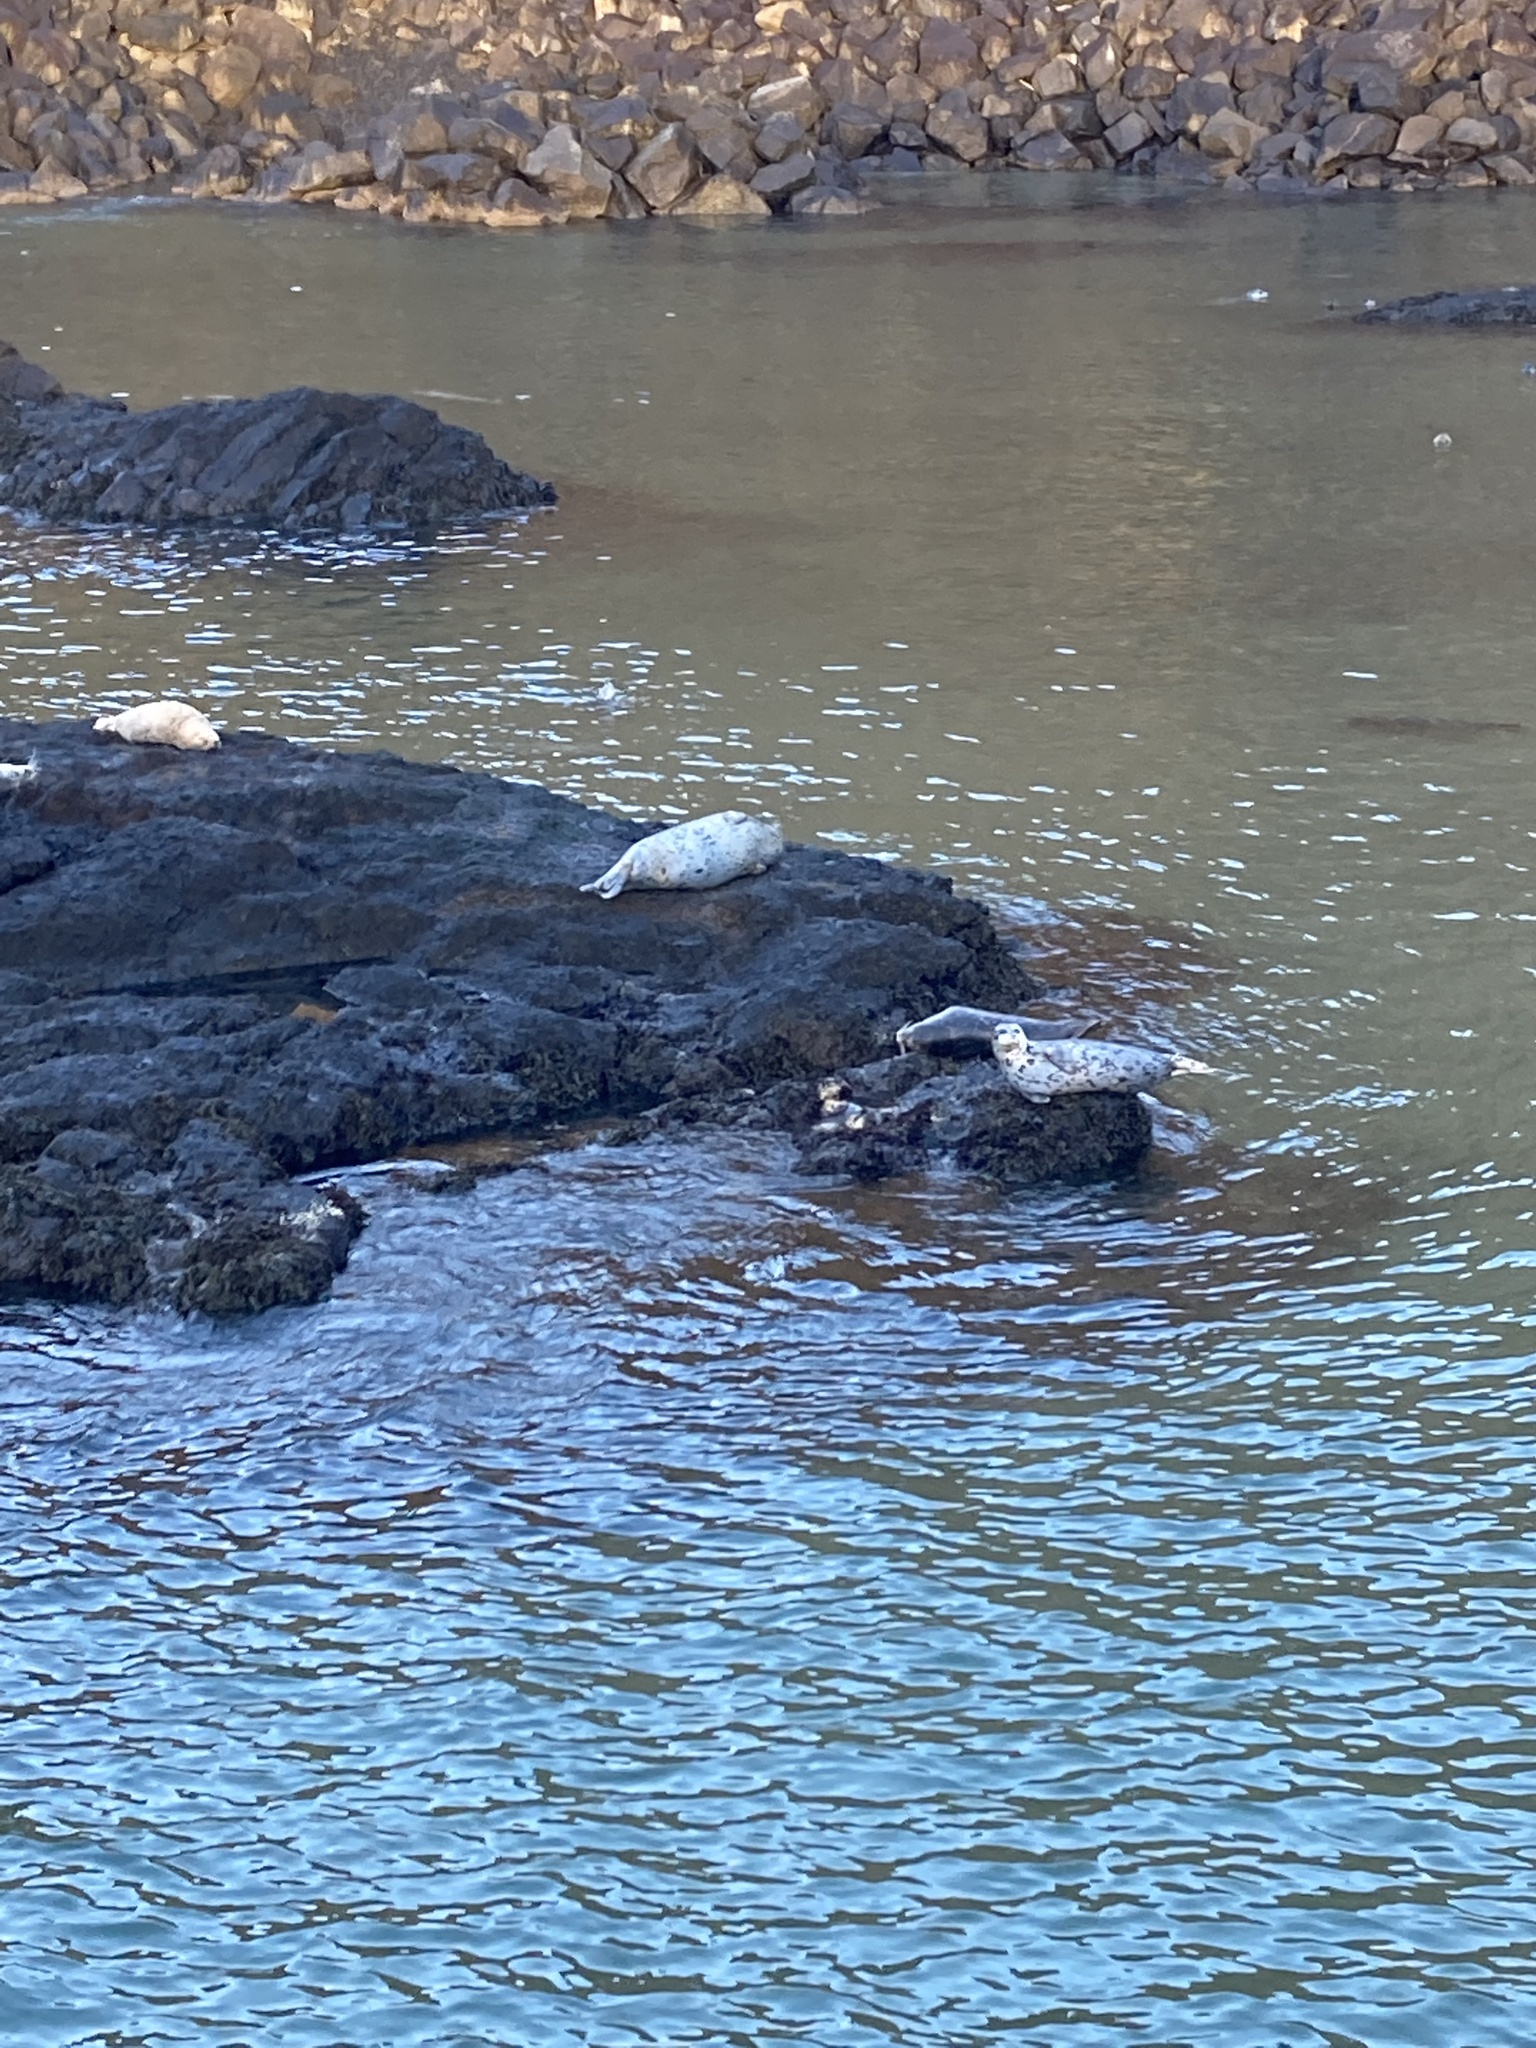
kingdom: Animalia
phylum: Chordata
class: Mammalia
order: Carnivora
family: Phocidae
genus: Phoca
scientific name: Phoca vitulina
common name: Harbor seal
